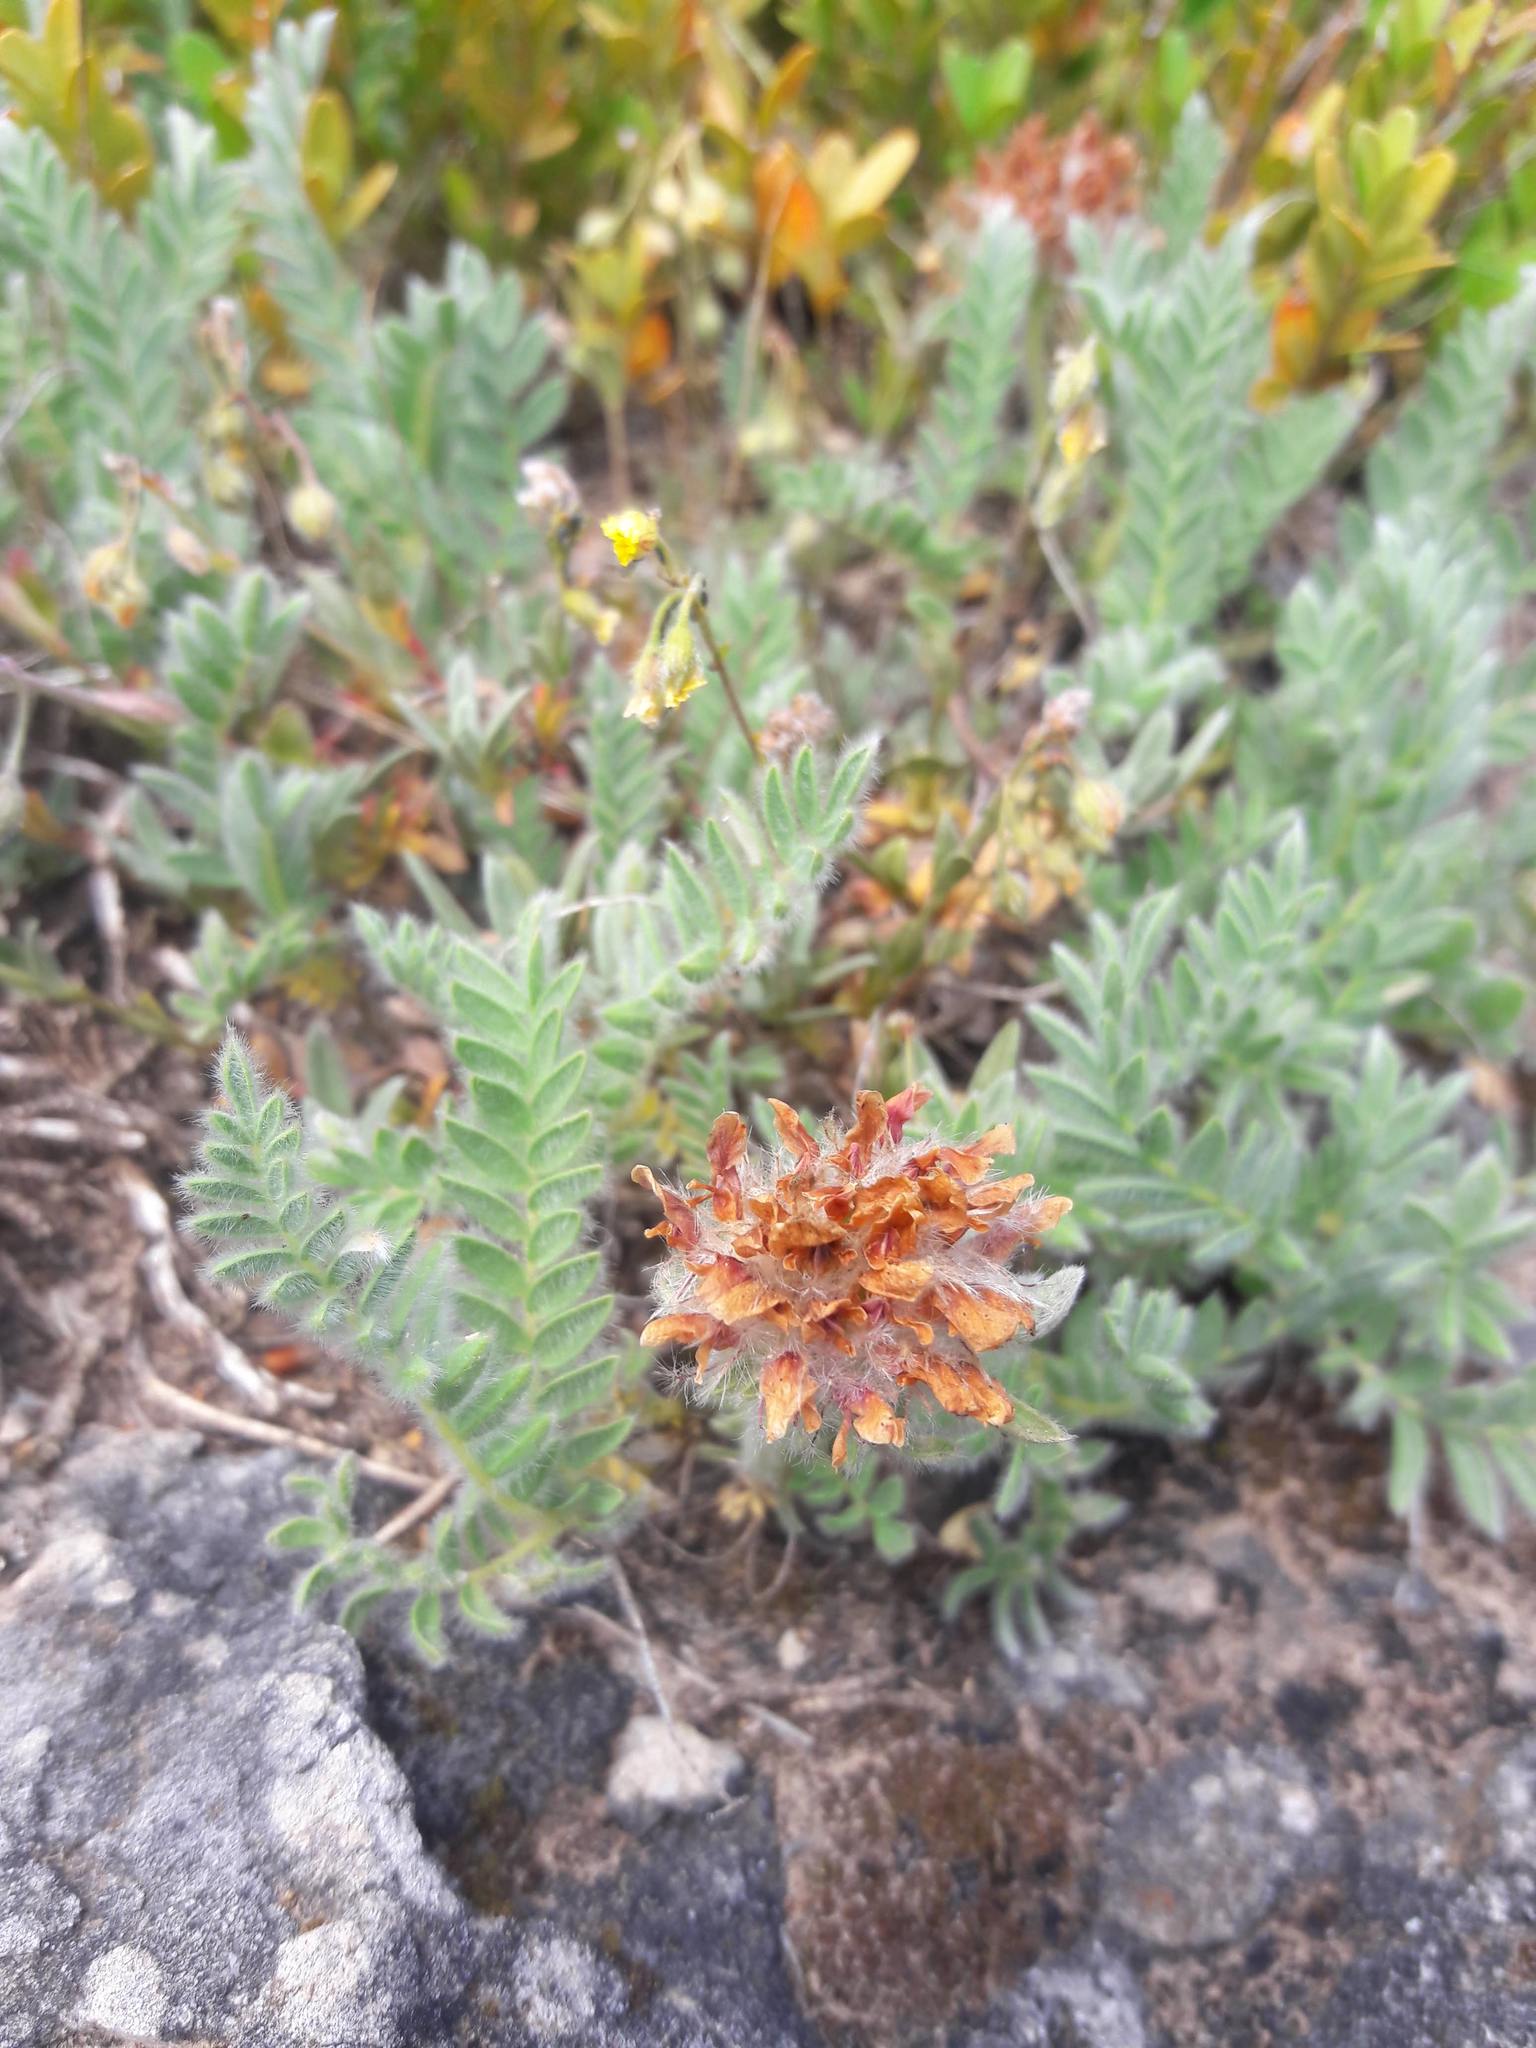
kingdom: Plantae
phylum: Tracheophyta
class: Magnoliopsida
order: Fabales
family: Fabaceae
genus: Anthyllis
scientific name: Anthyllis montana
